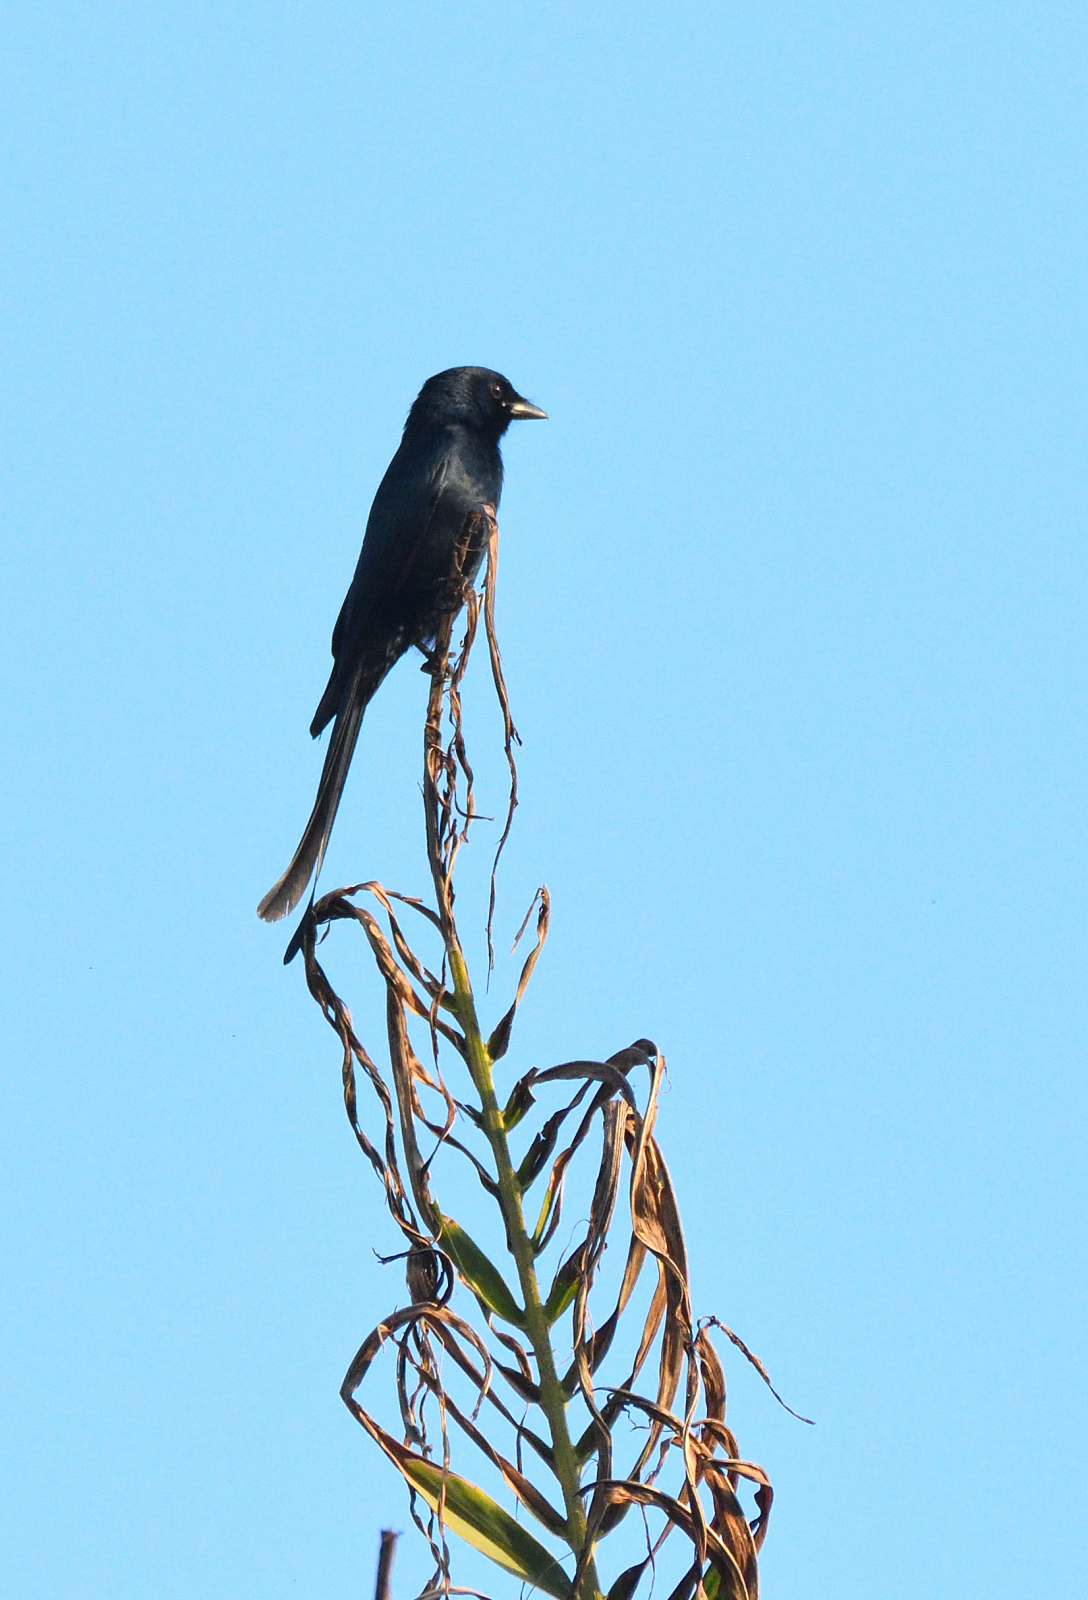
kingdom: Animalia
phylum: Chordata
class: Aves
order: Passeriformes
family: Dicruridae
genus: Dicrurus
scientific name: Dicrurus macrocercus
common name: Black drongo
